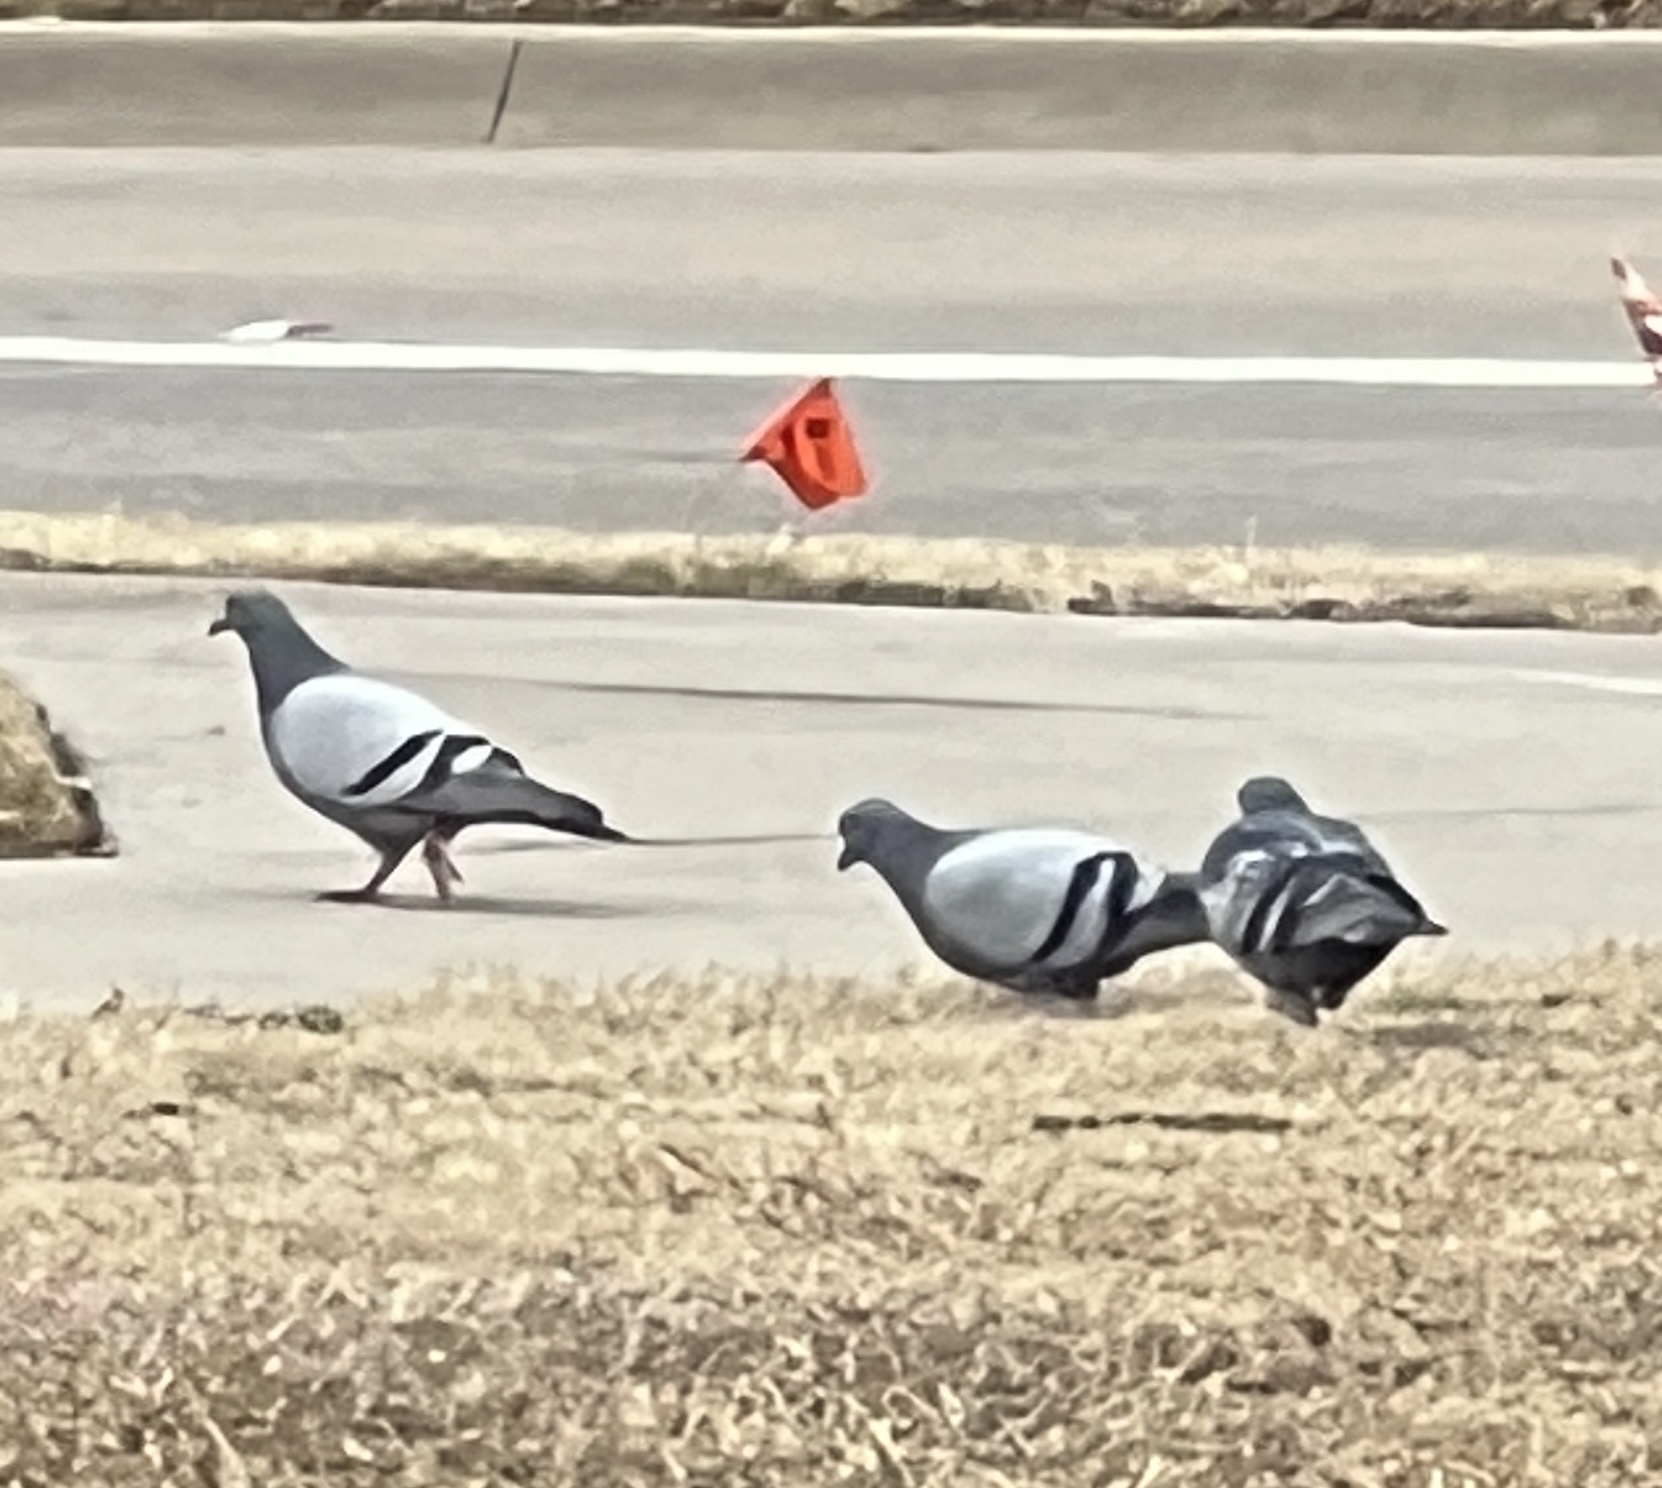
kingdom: Animalia
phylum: Chordata
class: Aves
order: Columbiformes
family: Columbidae
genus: Columba
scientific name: Columba livia
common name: Rock pigeon
